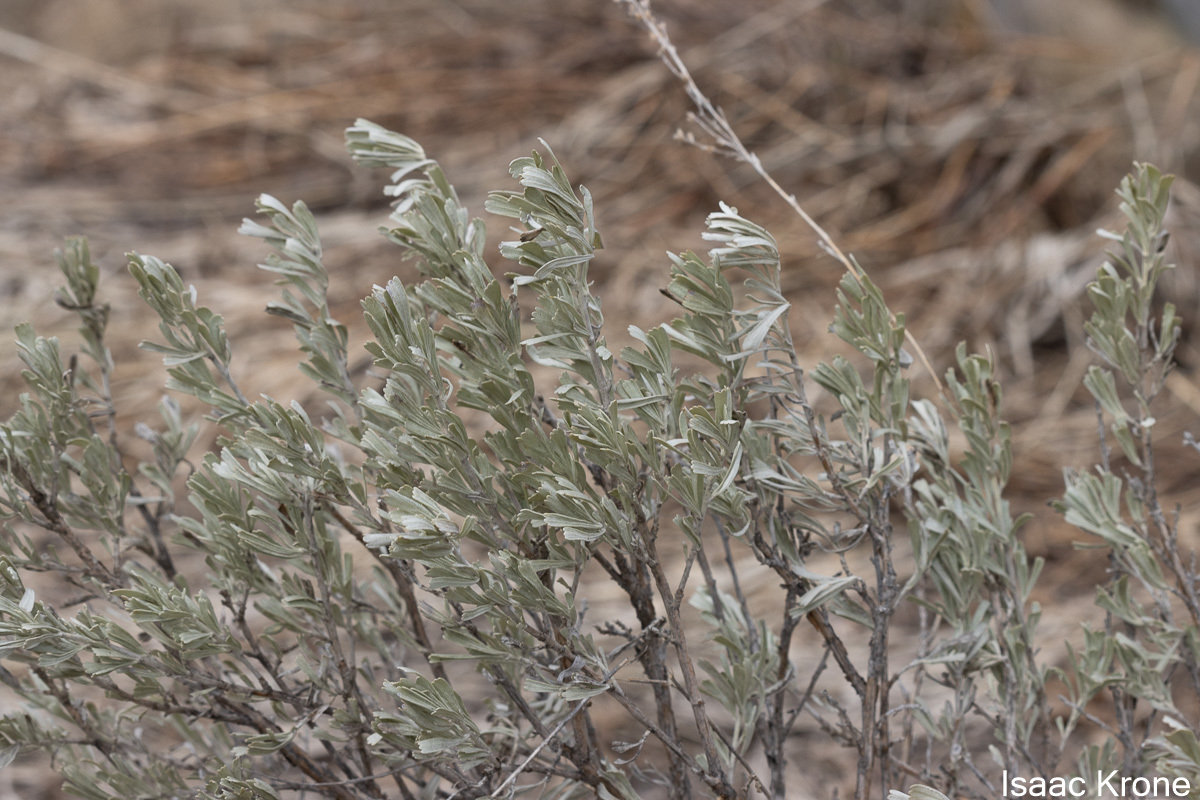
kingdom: Plantae
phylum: Tracheophyta
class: Magnoliopsida
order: Asterales
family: Asteraceae
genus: Artemisia
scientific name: Artemisia tridentata
